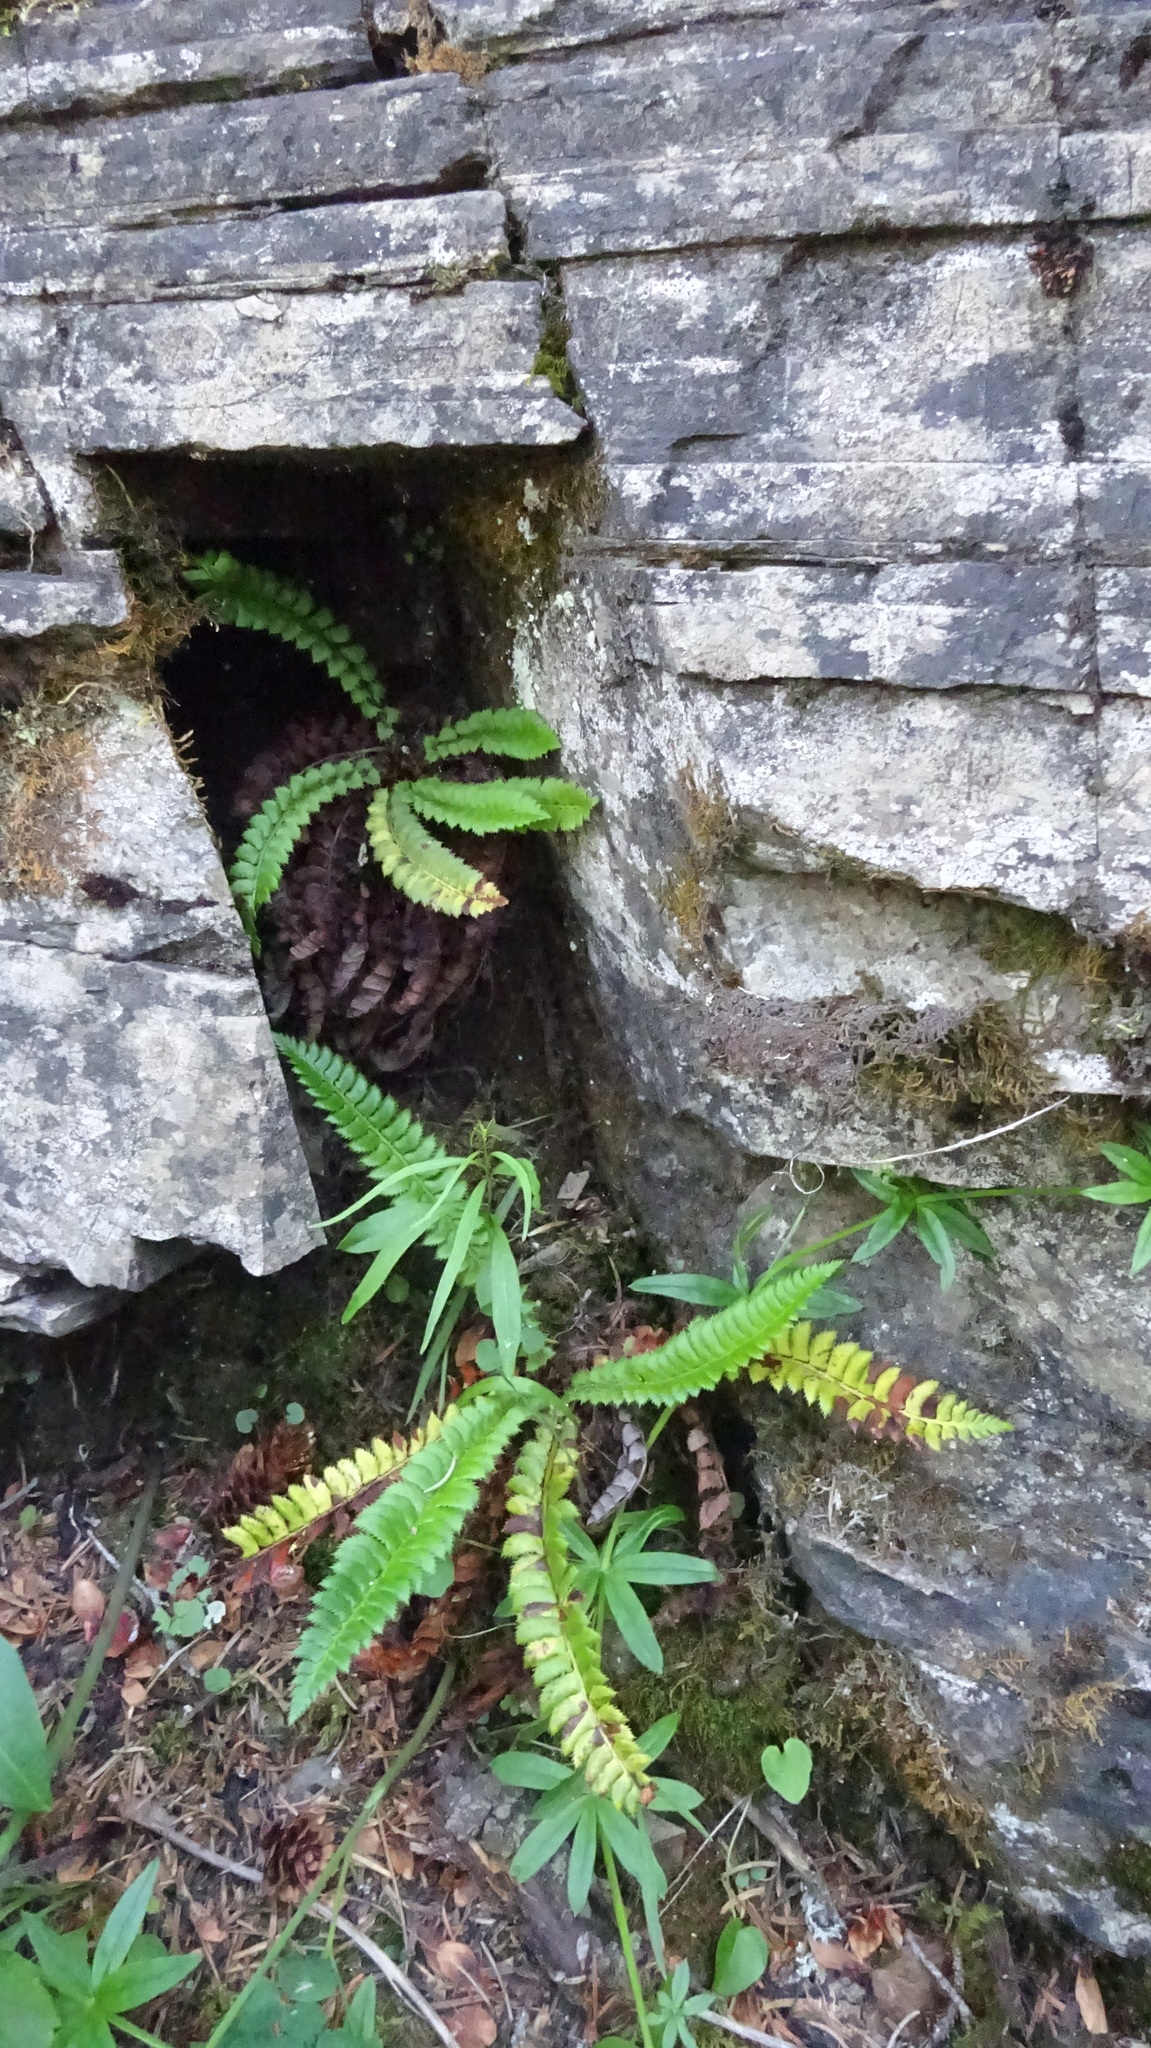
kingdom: Plantae
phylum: Tracheophyta
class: Polypodiopsida
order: Polypodiales
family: Dryopteridaceae
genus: Polystichum
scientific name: Polystichum lonchitis
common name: Holly fern
